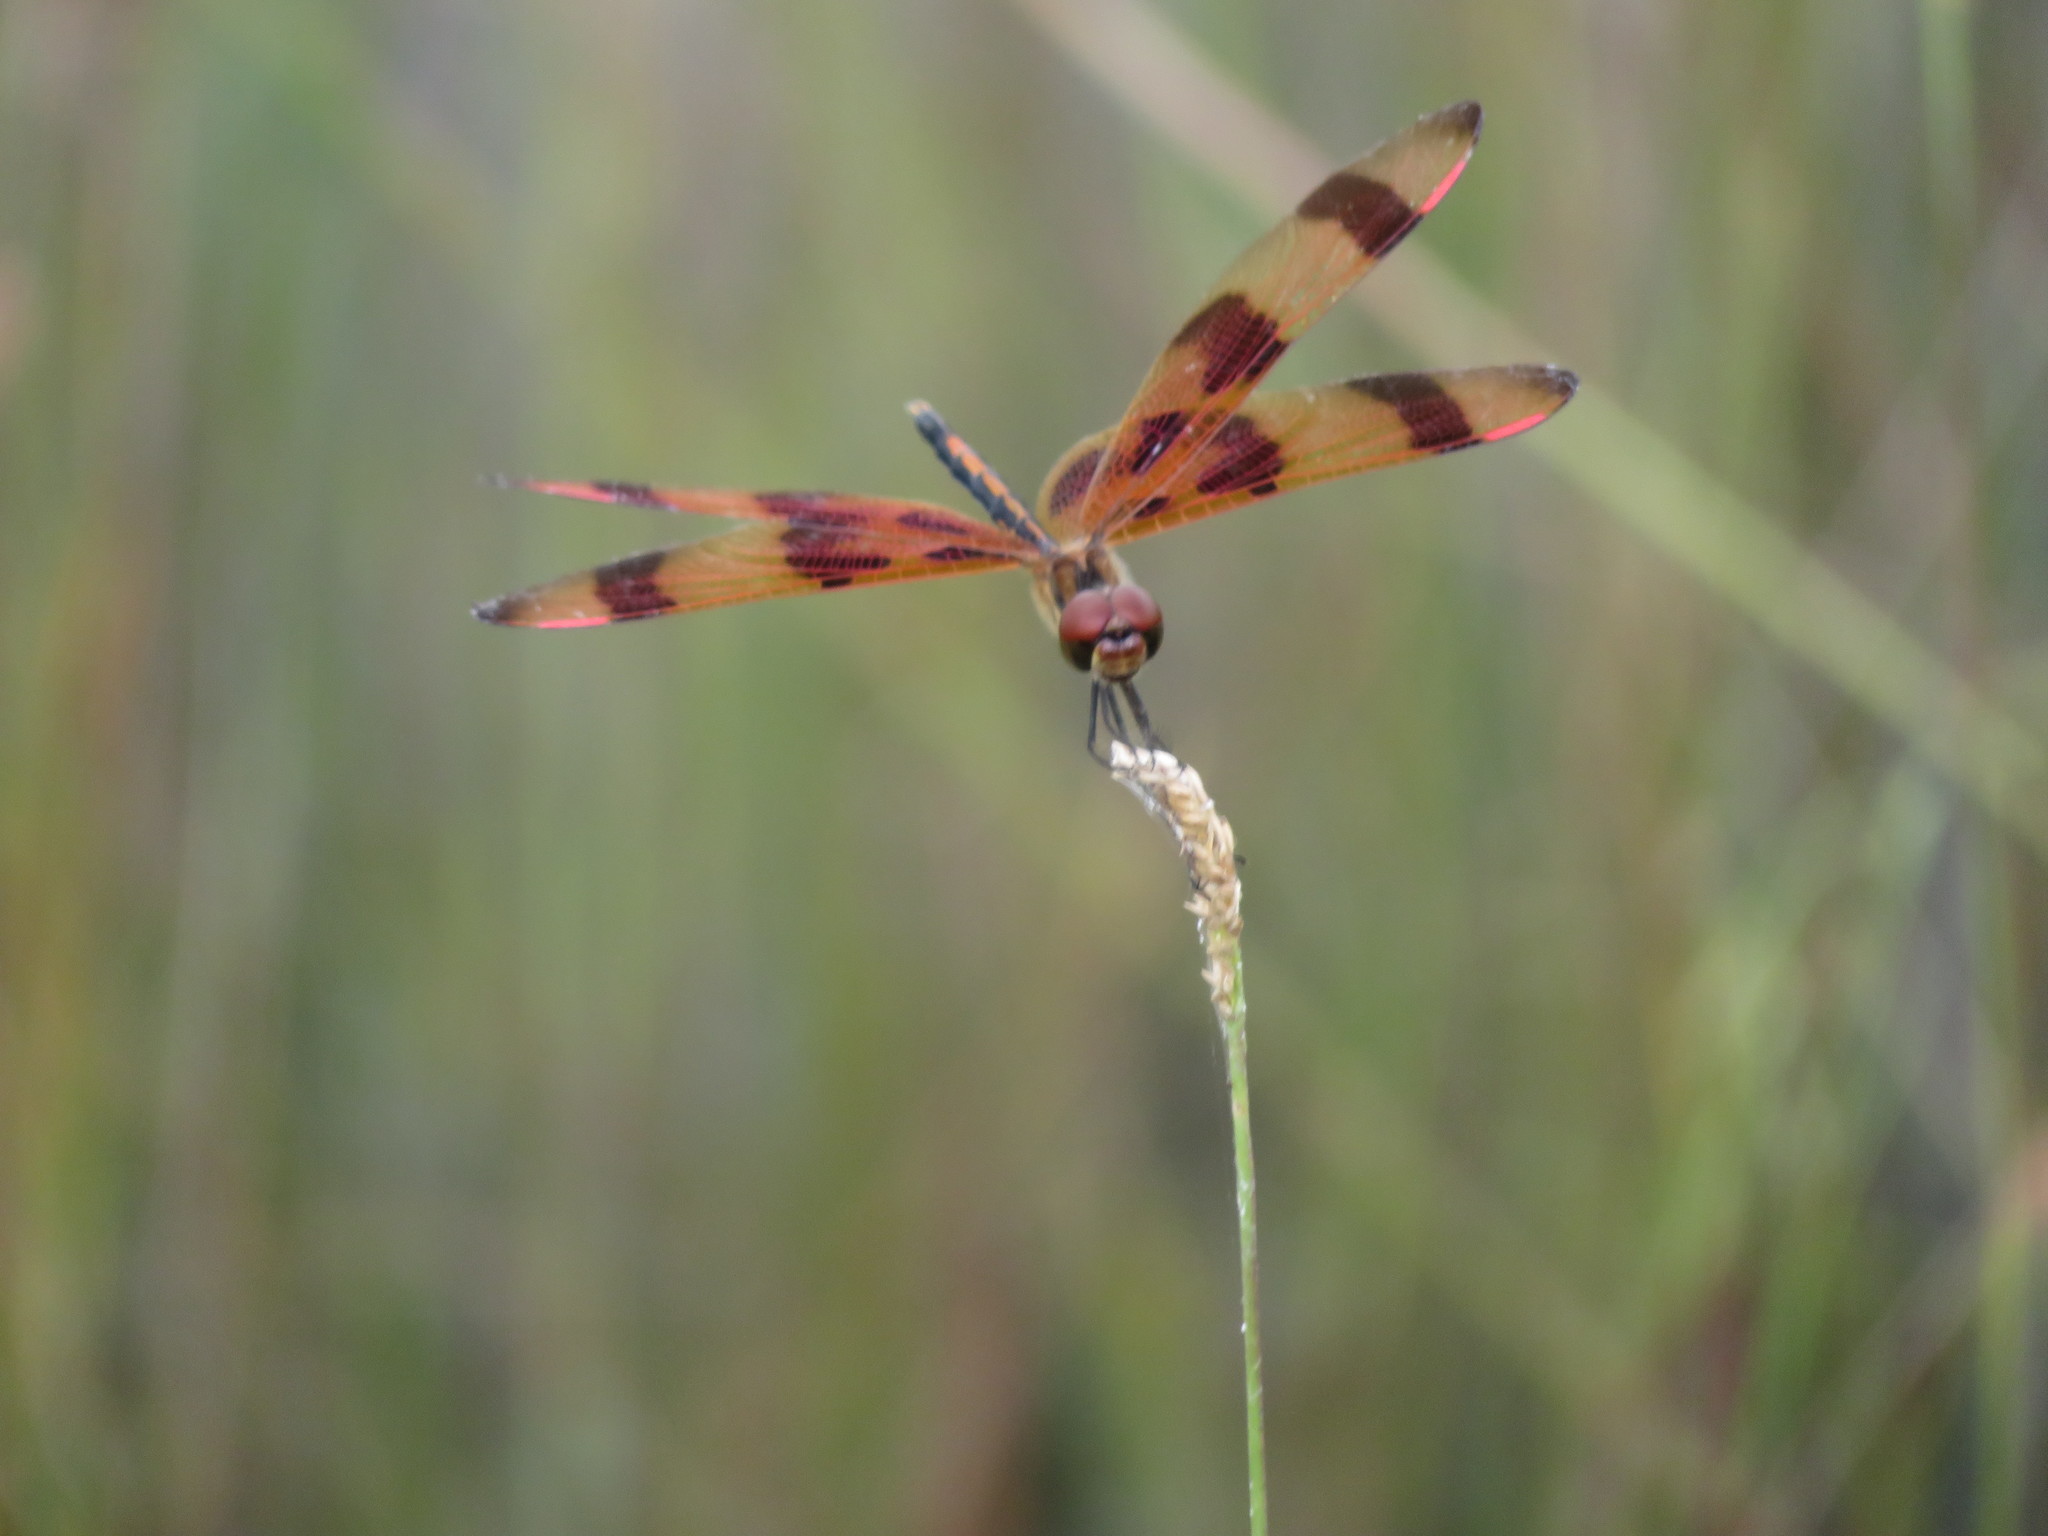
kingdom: Animalia
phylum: Arthropoda
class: Insecta
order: Odonata
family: Libellulidae
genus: Celithemis
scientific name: Celithemis eponina
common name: Halloween pennant
